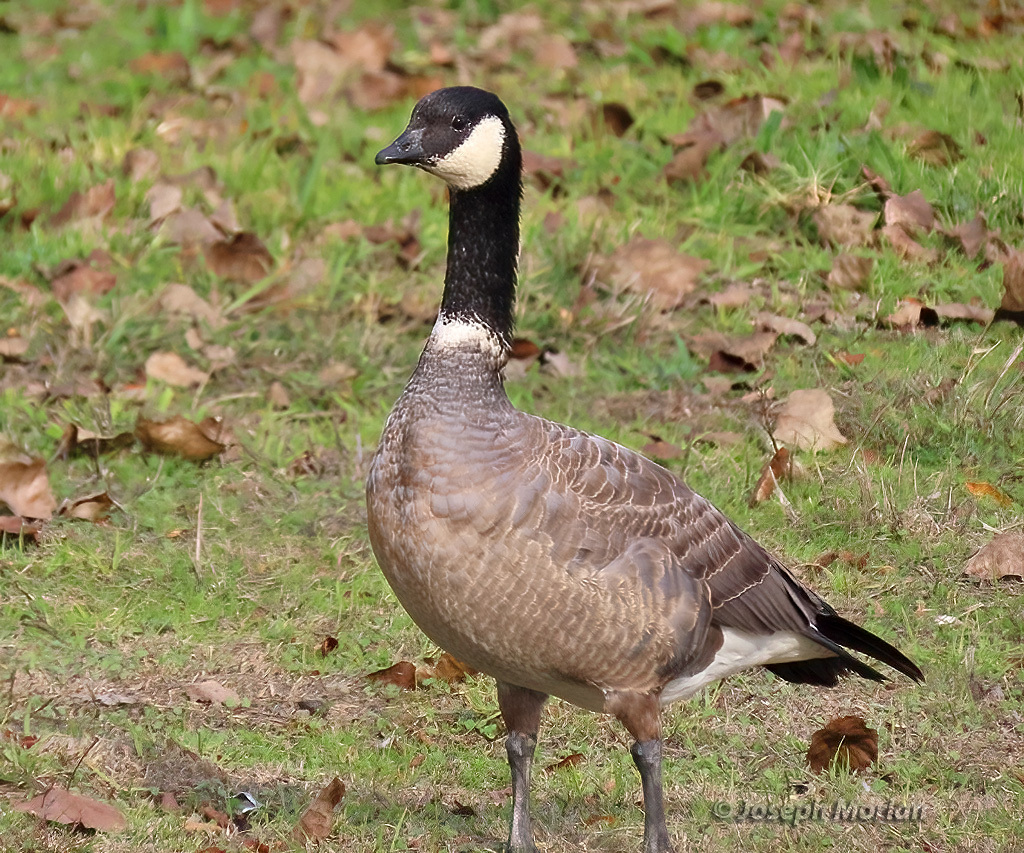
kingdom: Animalia
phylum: Chordata
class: Aves
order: Anseriformes
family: Anatidae
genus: Branta
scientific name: Branta hutchinsii
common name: Cackling goose
